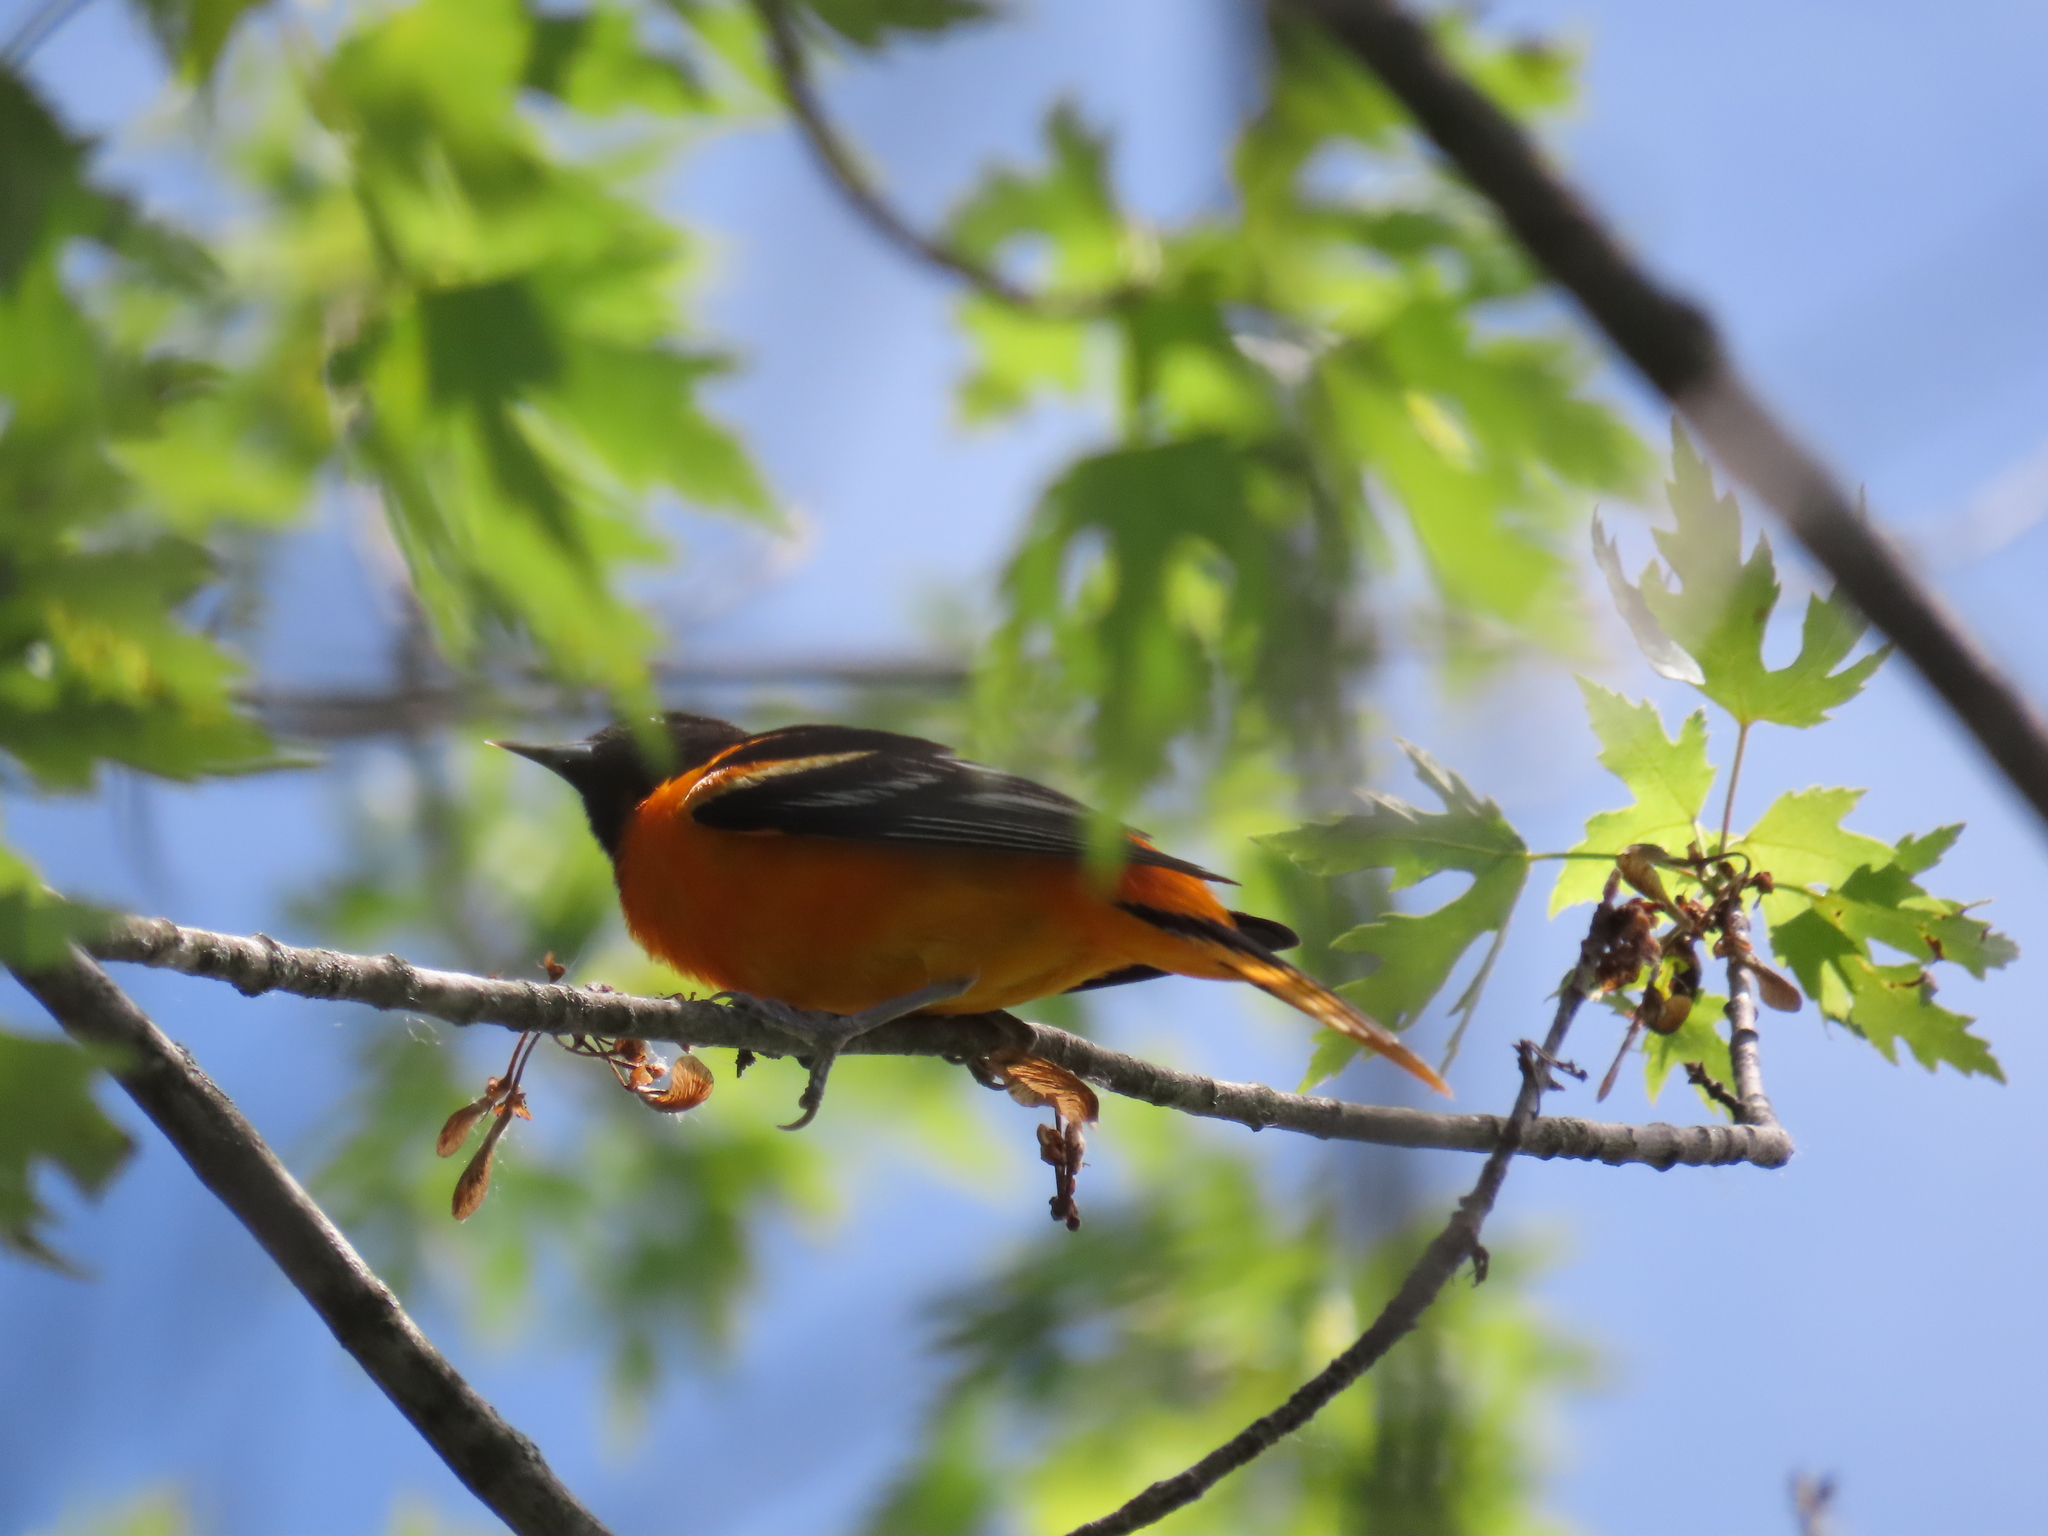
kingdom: Animalia
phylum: Chordata
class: Aves
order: Passeriformes
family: Icteridae
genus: Icterus
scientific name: Icterus galbula
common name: Baltimore oriole
